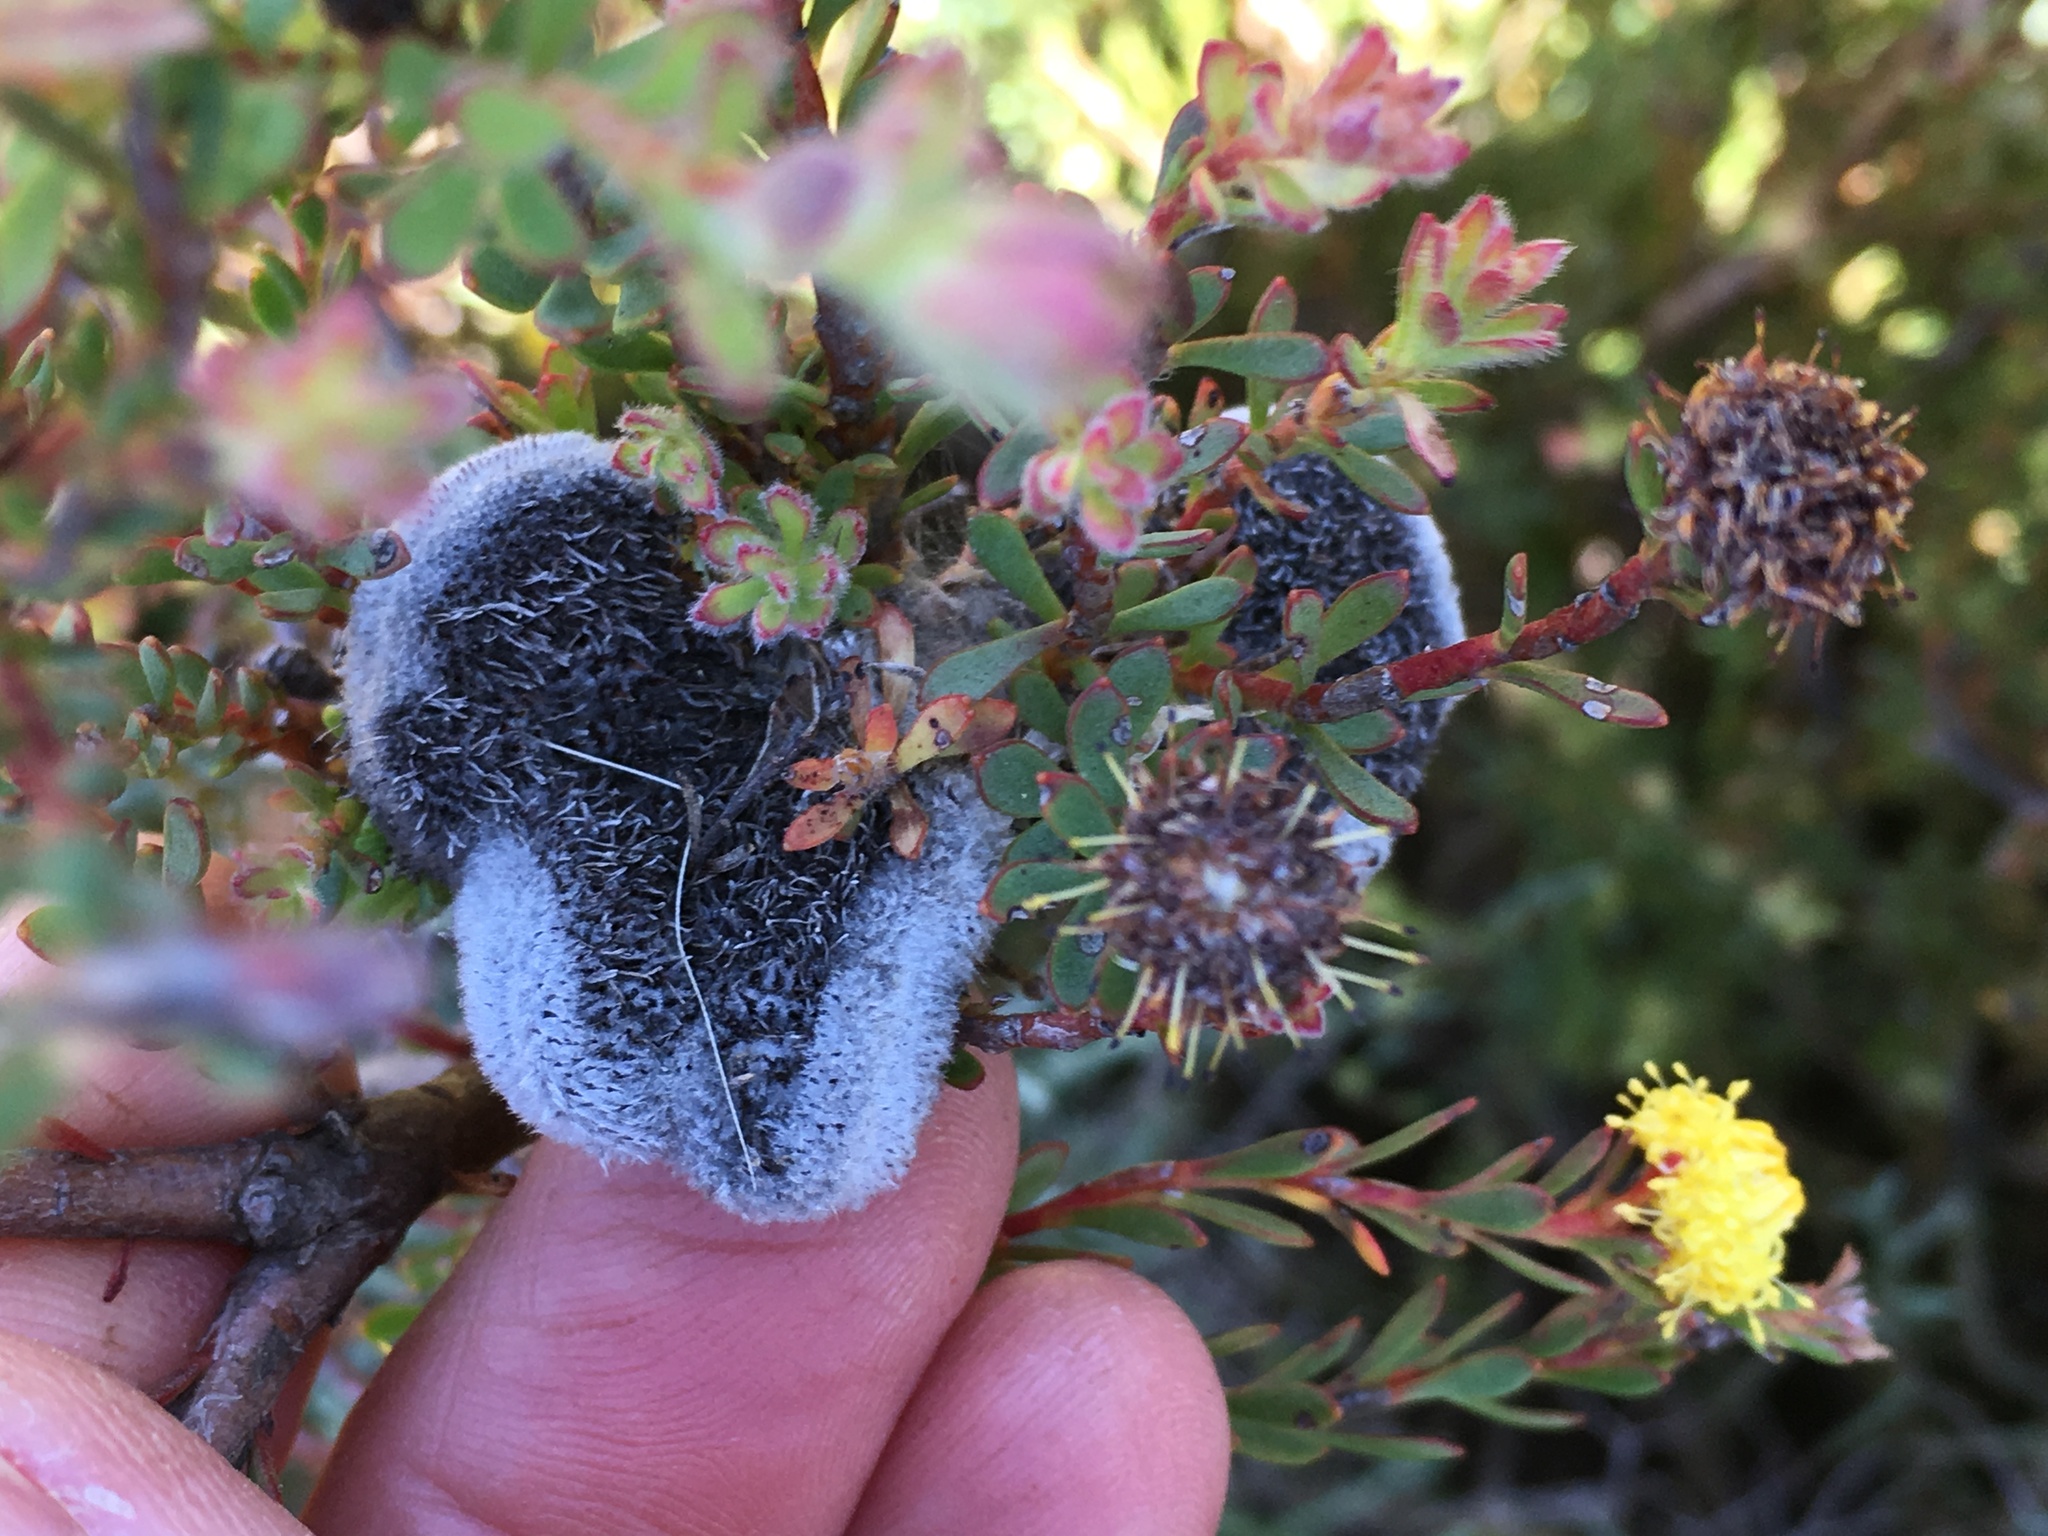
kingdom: Plantae
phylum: Tracheophyta
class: Magnoliopsida
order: Proteales
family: Proteaceae
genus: Leucadendron
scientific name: Leucadendron levisanus
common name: Cape flats conebush
